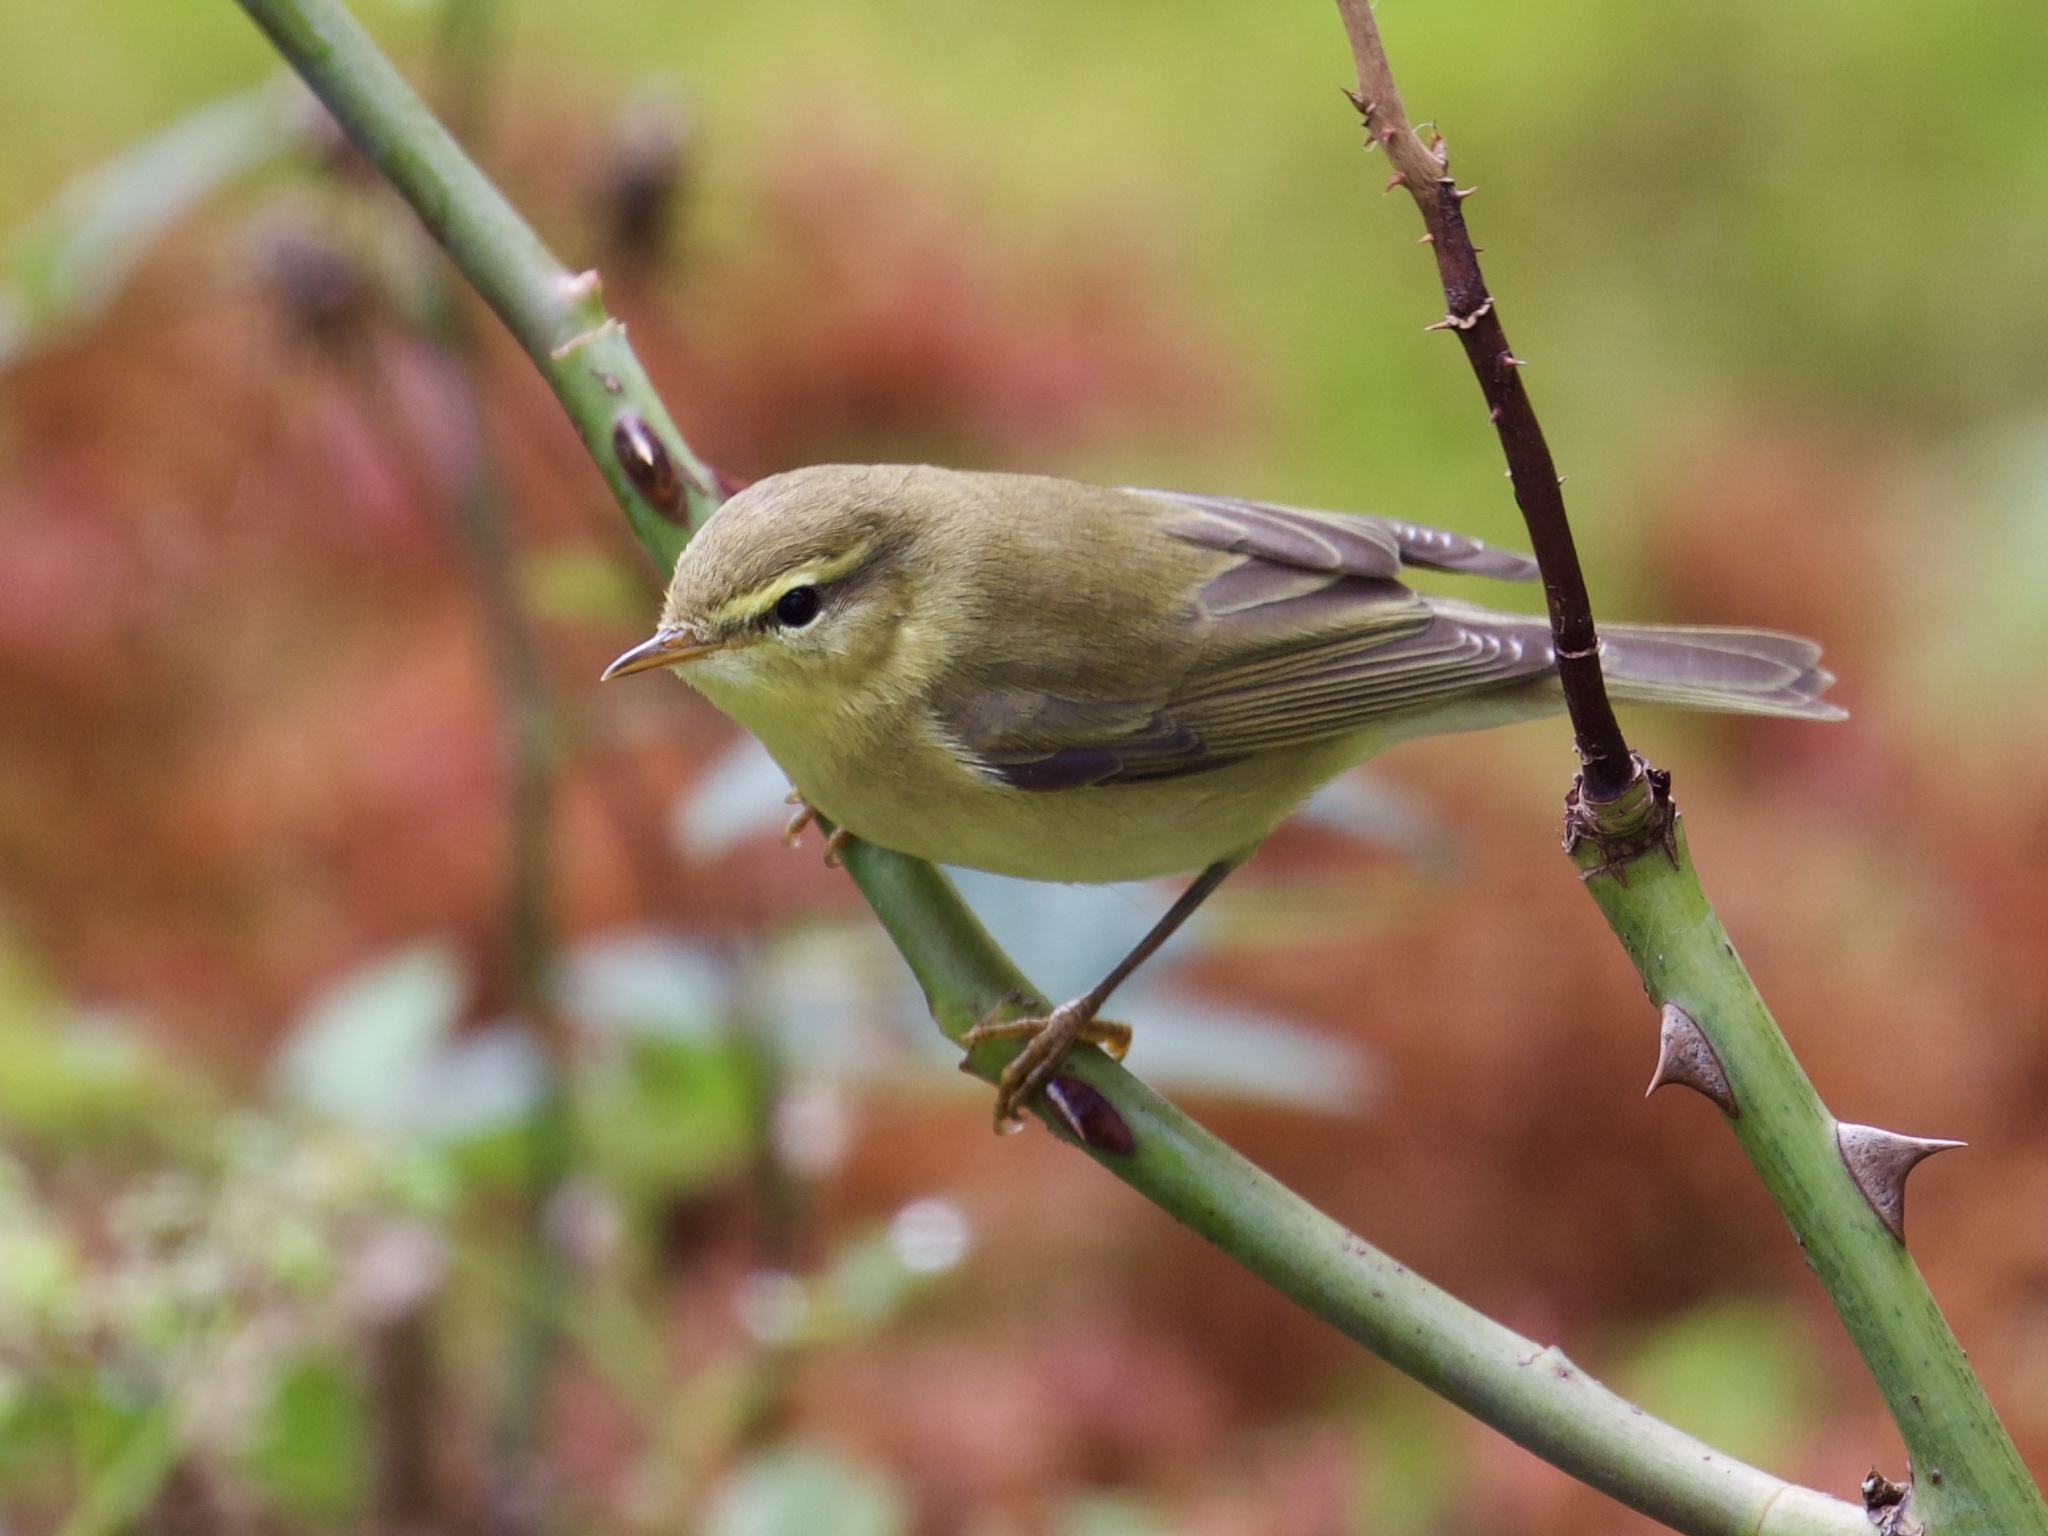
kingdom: Animalia
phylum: Chordata
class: Aves
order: Passeriformes
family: Phylloscopidae
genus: Phylloscopus
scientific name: Phylloscopus trochilus
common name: Willow warbler
